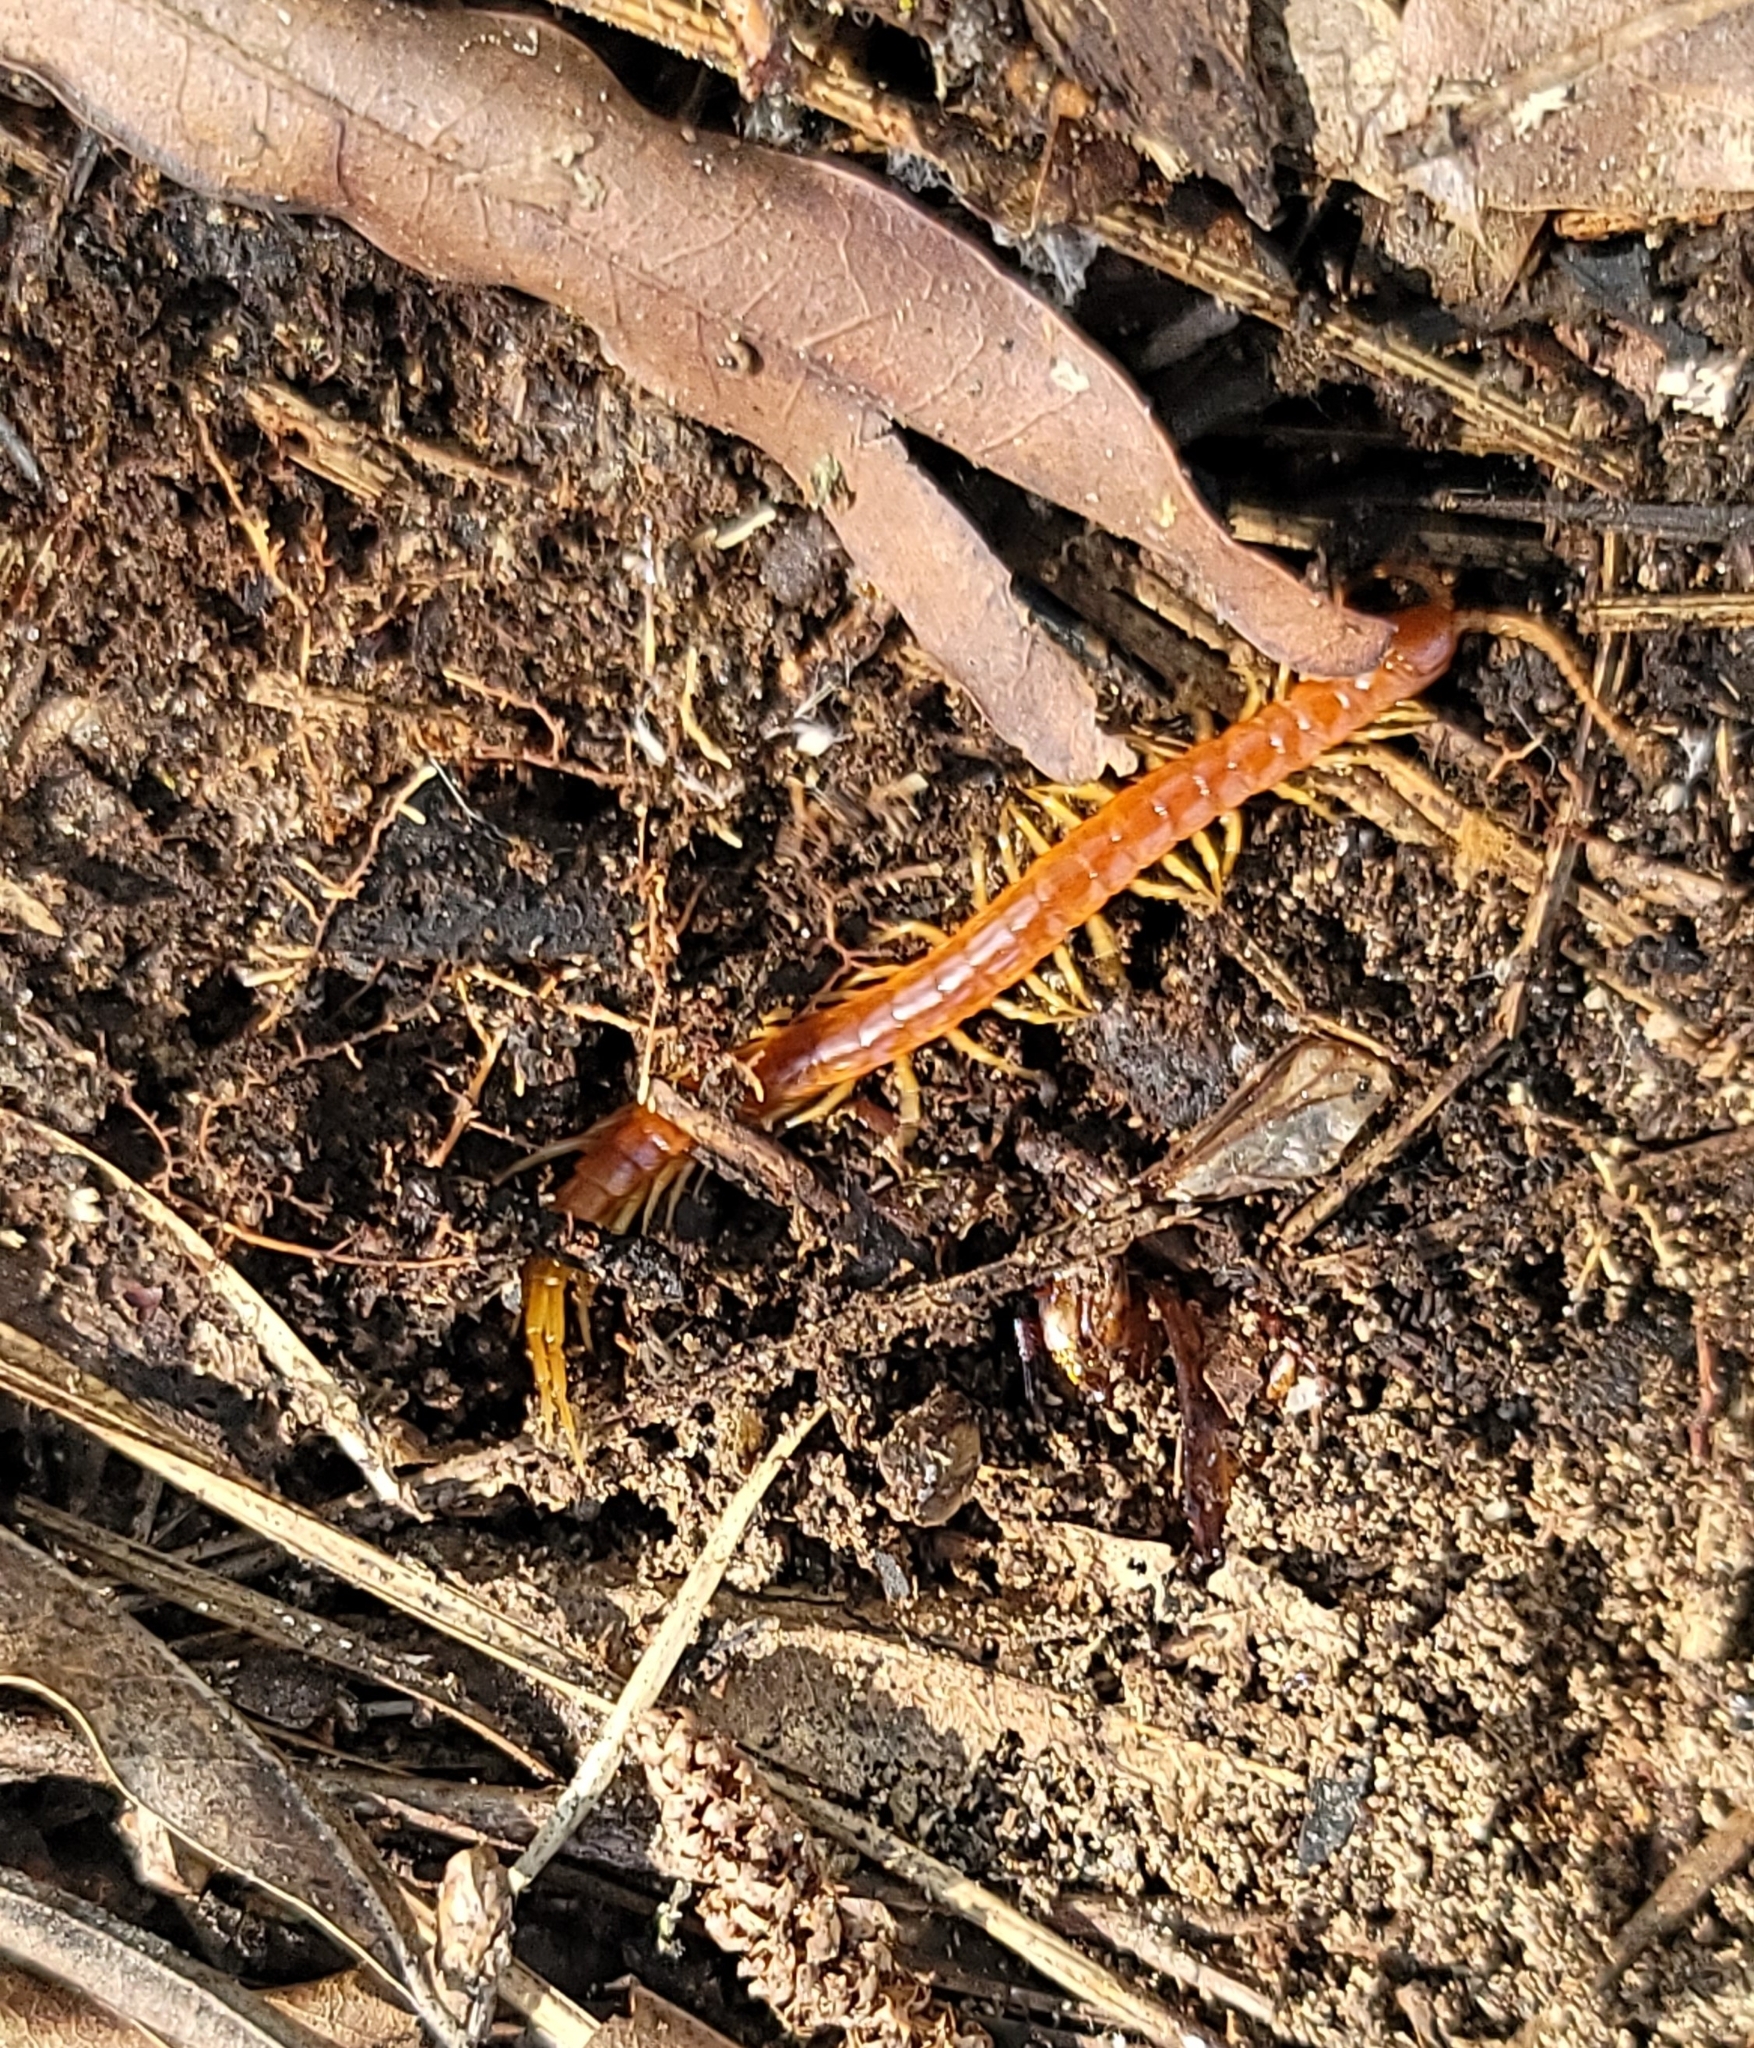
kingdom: Animalia
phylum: Arthropoda
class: Chilopoda
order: Scolopendromorpha
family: Scolopocryptopidae
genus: Scolopocryptops
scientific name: Scolopocryptops sexspinosus
